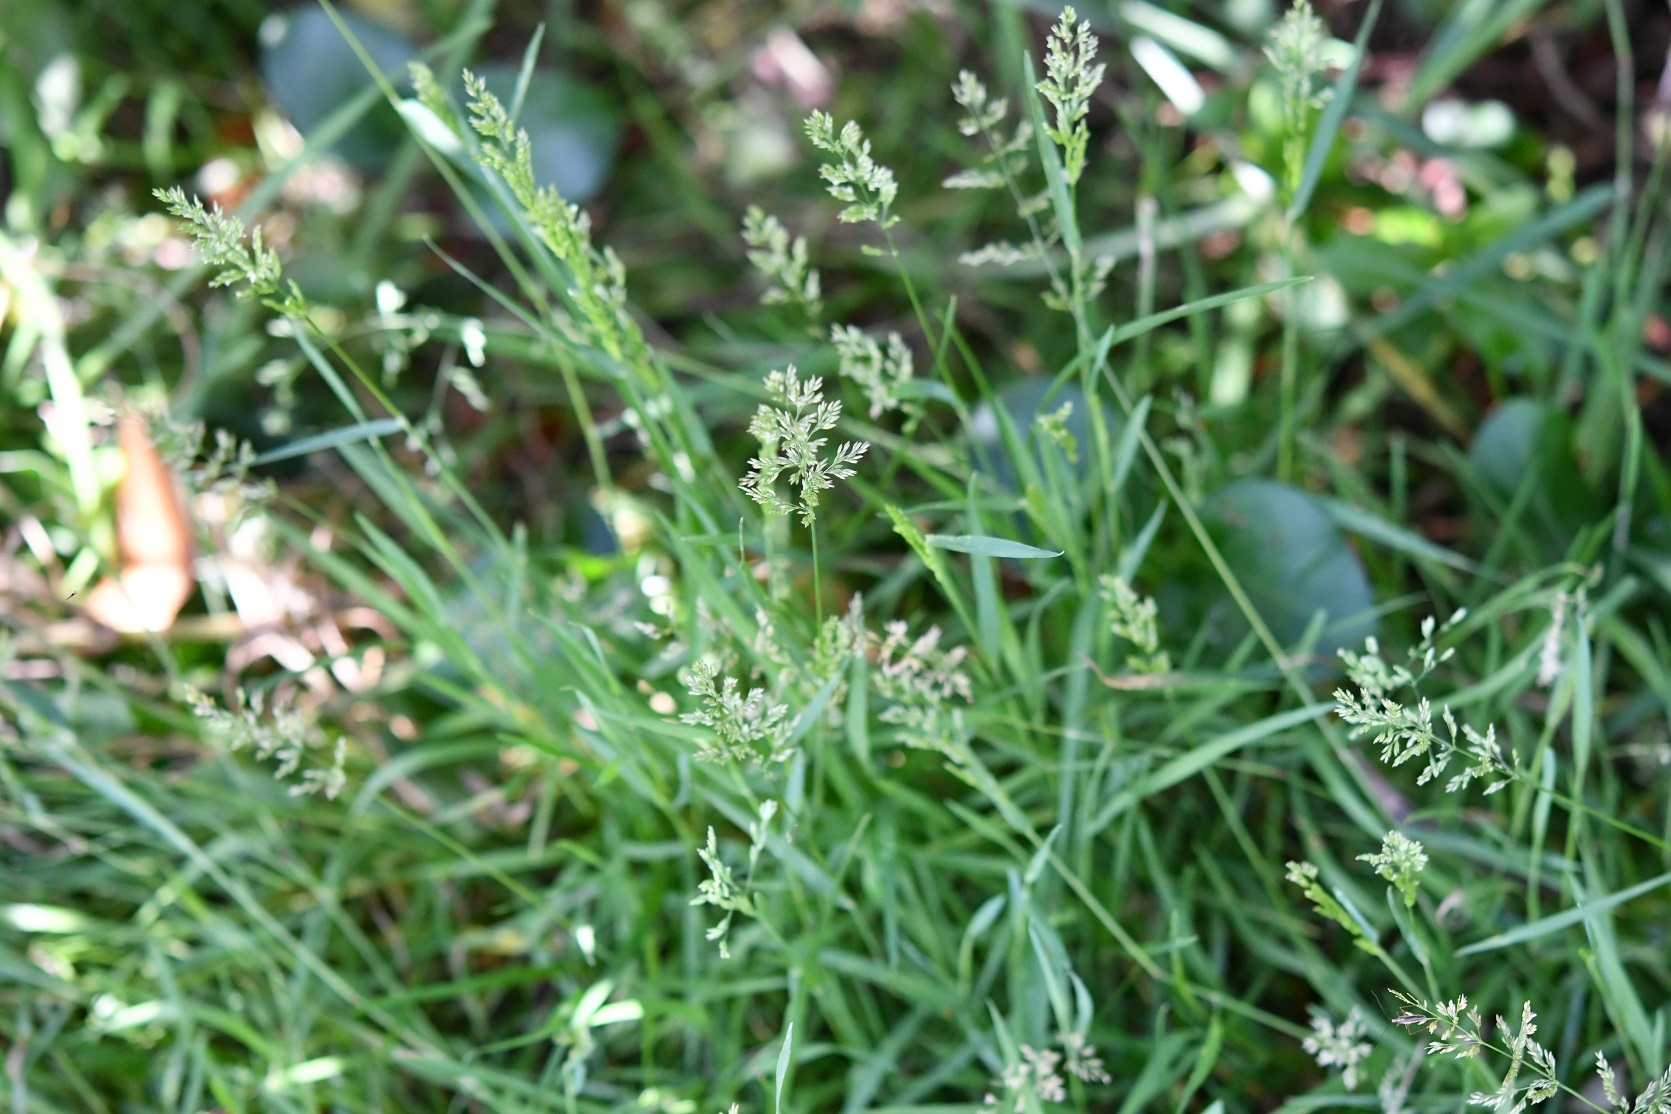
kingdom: Plantae
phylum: Tracheophyta
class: Liliopsida
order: Poales
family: Poaceae
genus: Poa
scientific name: Poa pratensis
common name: Kentucky bluegrass
